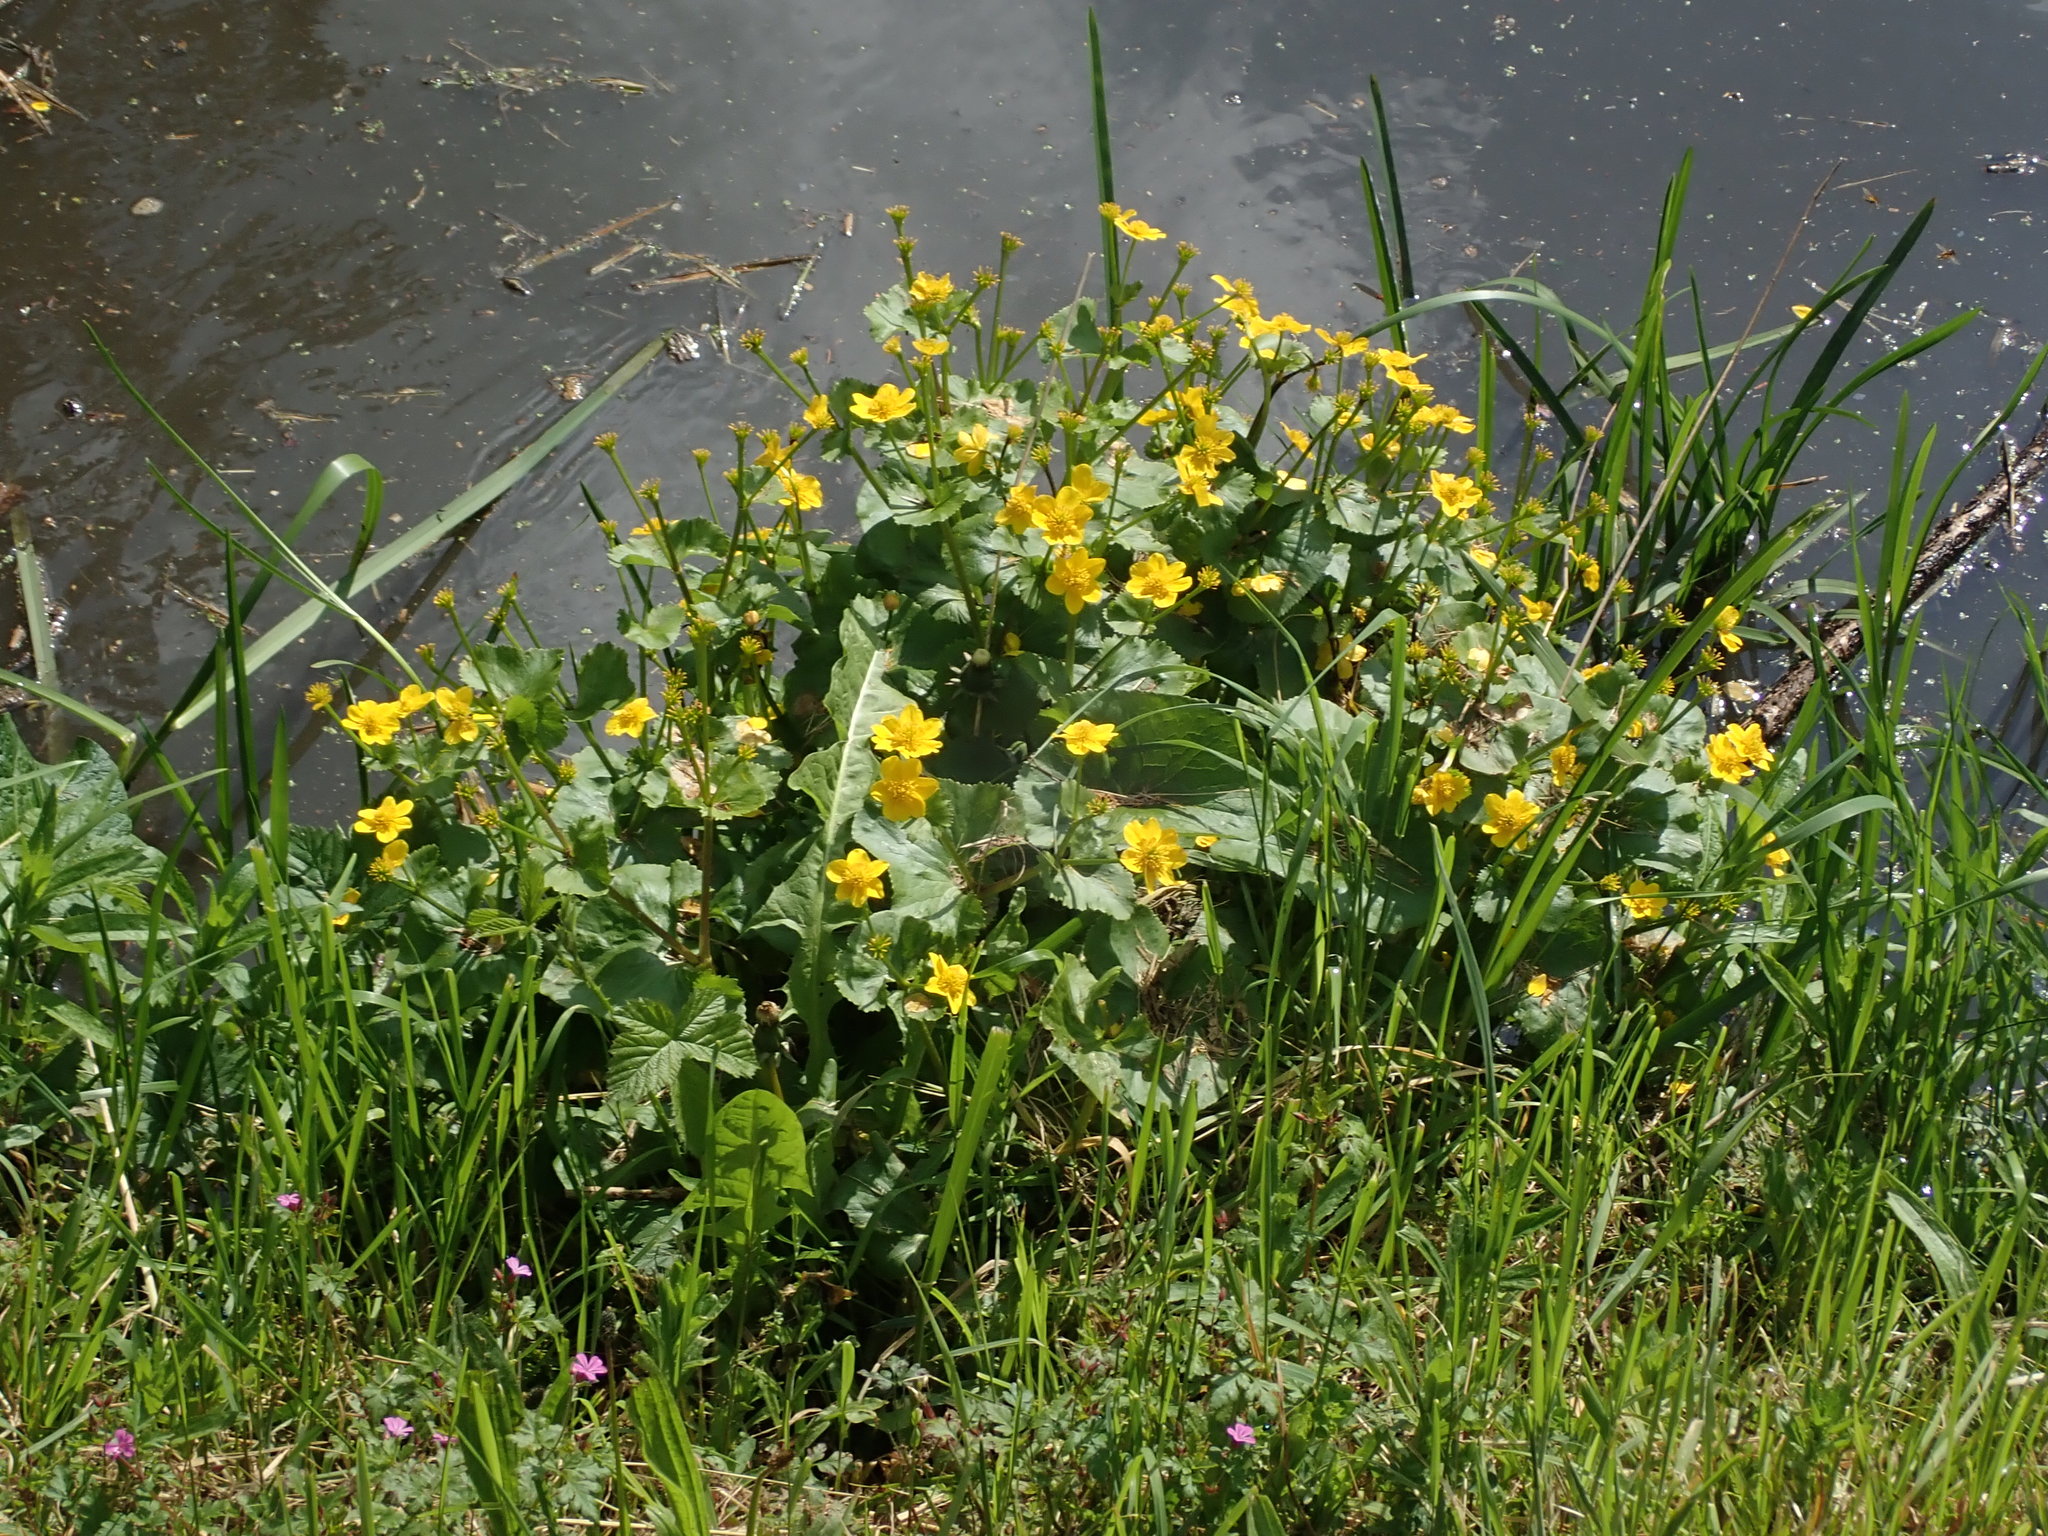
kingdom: Plantae
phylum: Tracheophyta
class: Magnoliopsida
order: Ranunculales
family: Ranunculaceae
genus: Caltha
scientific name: Caltha palustris
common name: Marsh marigold
